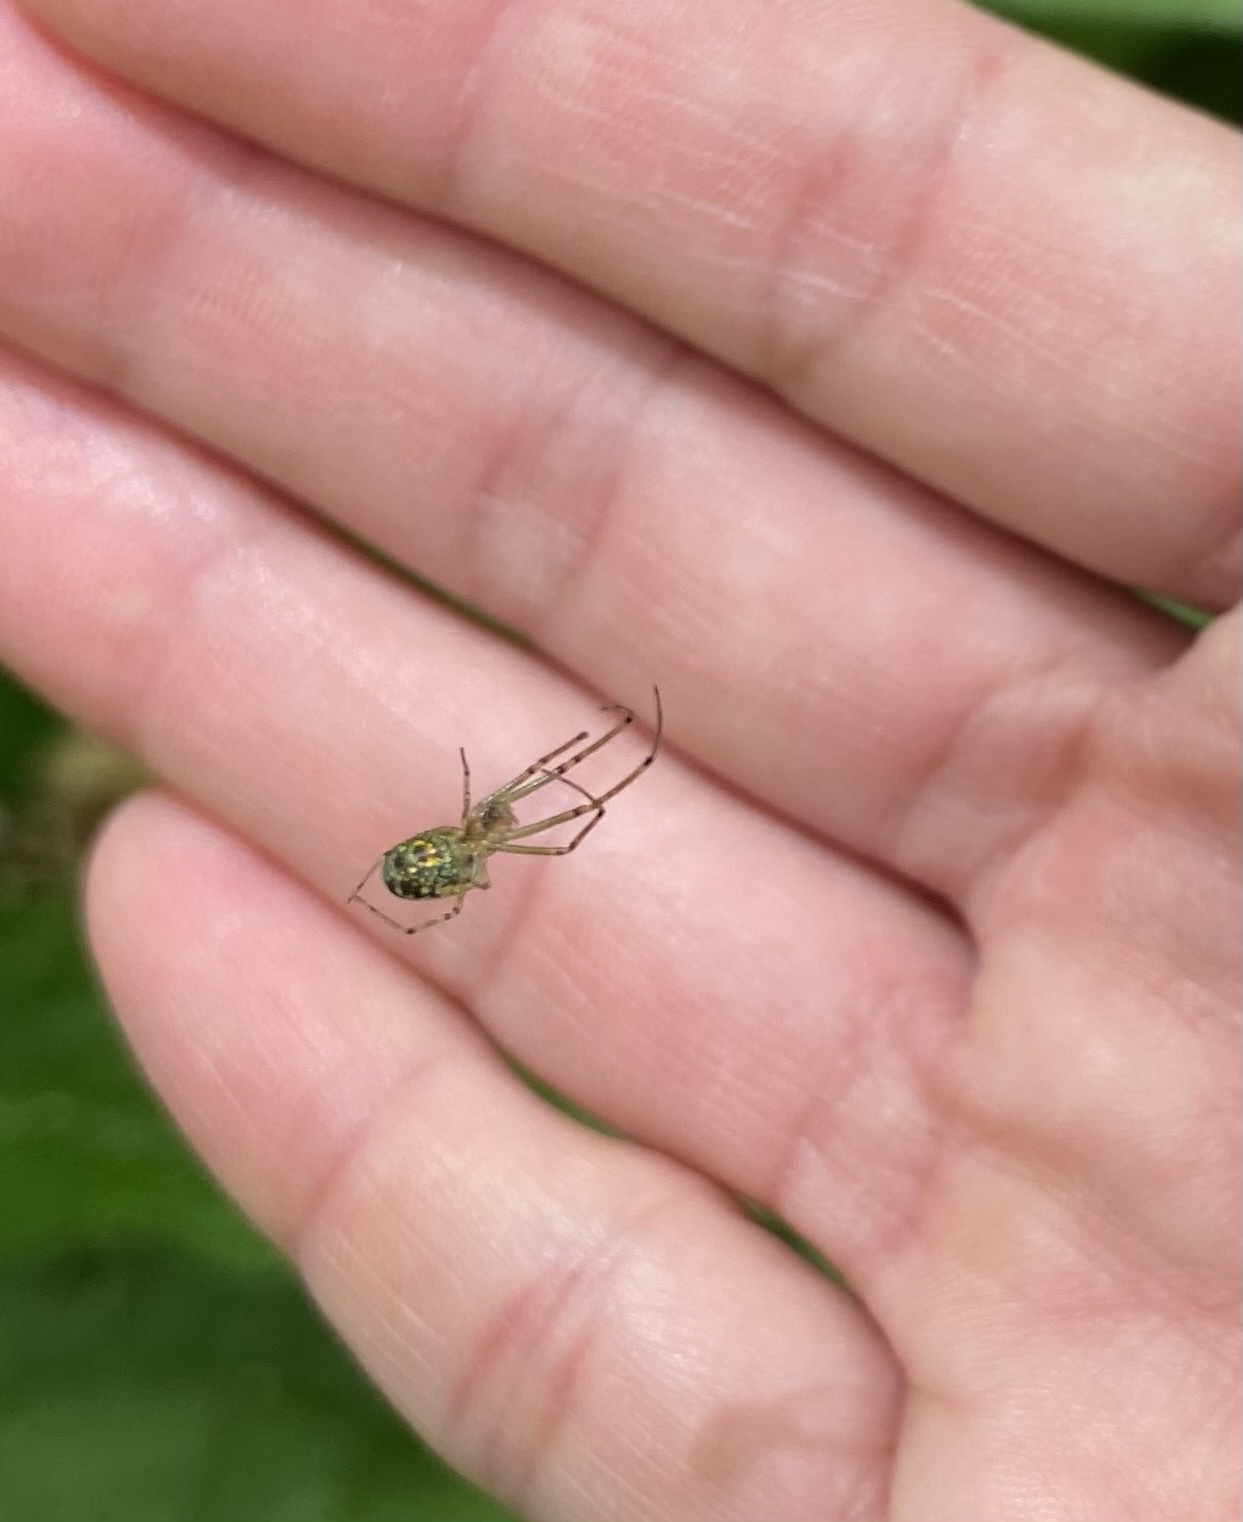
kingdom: Animalia
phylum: Arthropoda
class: Arachnida
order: Araneae
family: Tetragnathidae
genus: Leucauge
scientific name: Leucauge venusta
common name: Longjawed orb weavers
